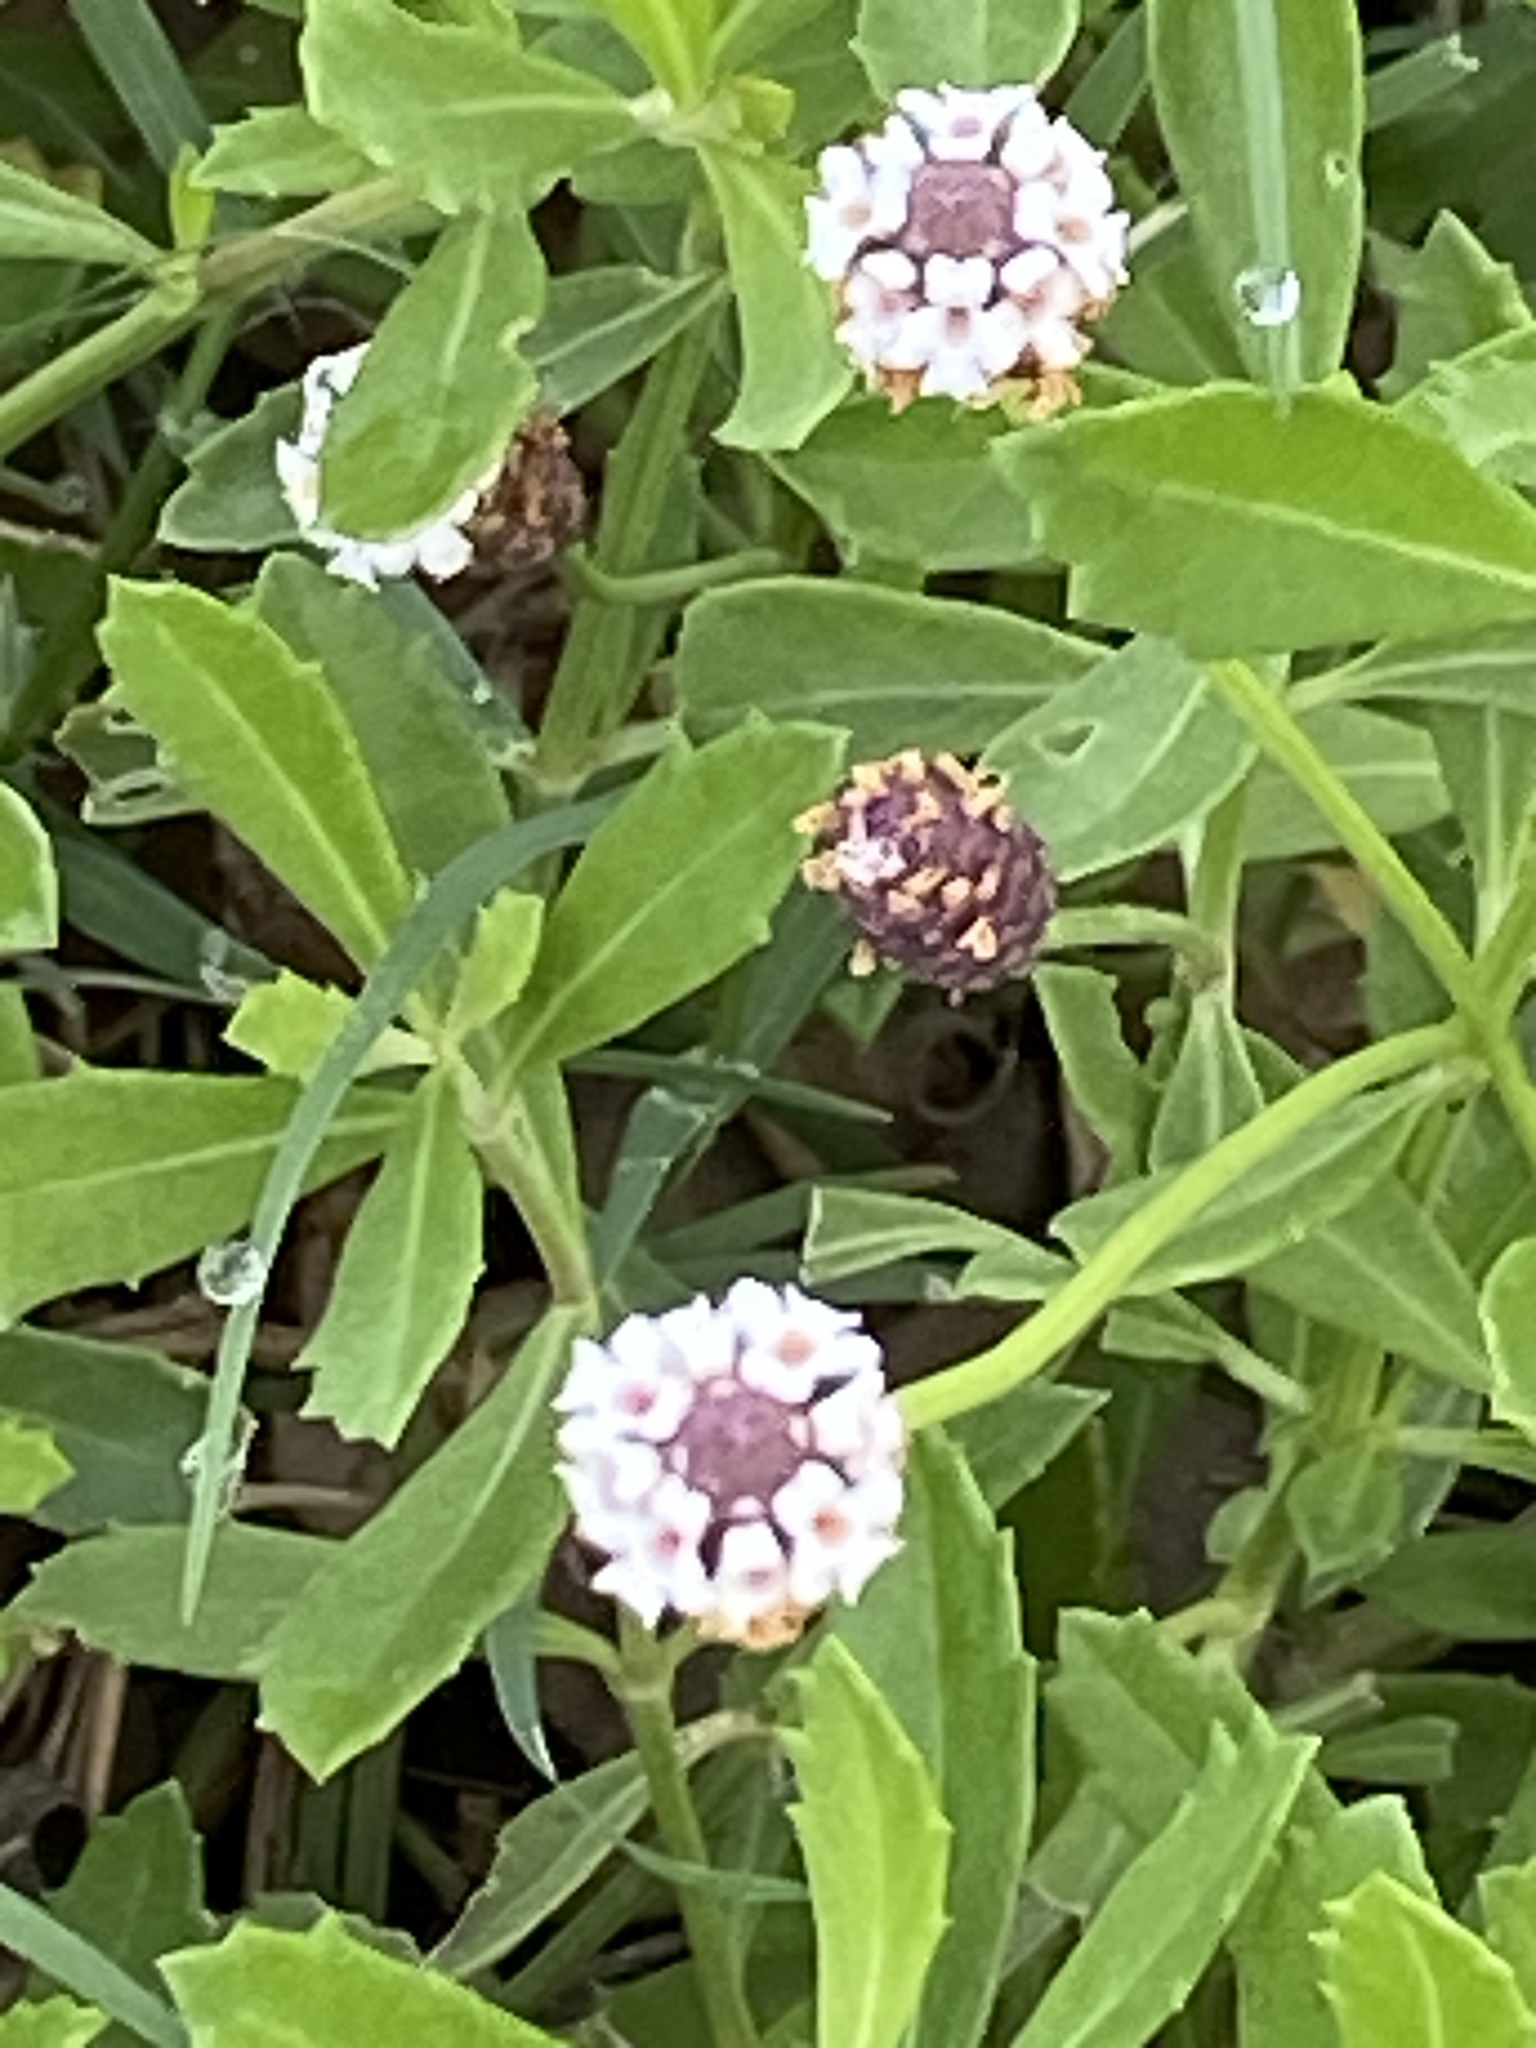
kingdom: Plantae
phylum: Tracheophyta
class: Magnoliopsida
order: Lamiales
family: Verbenaceae
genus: Phyla
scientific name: Phyla nodiflora
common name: Frogfruit
